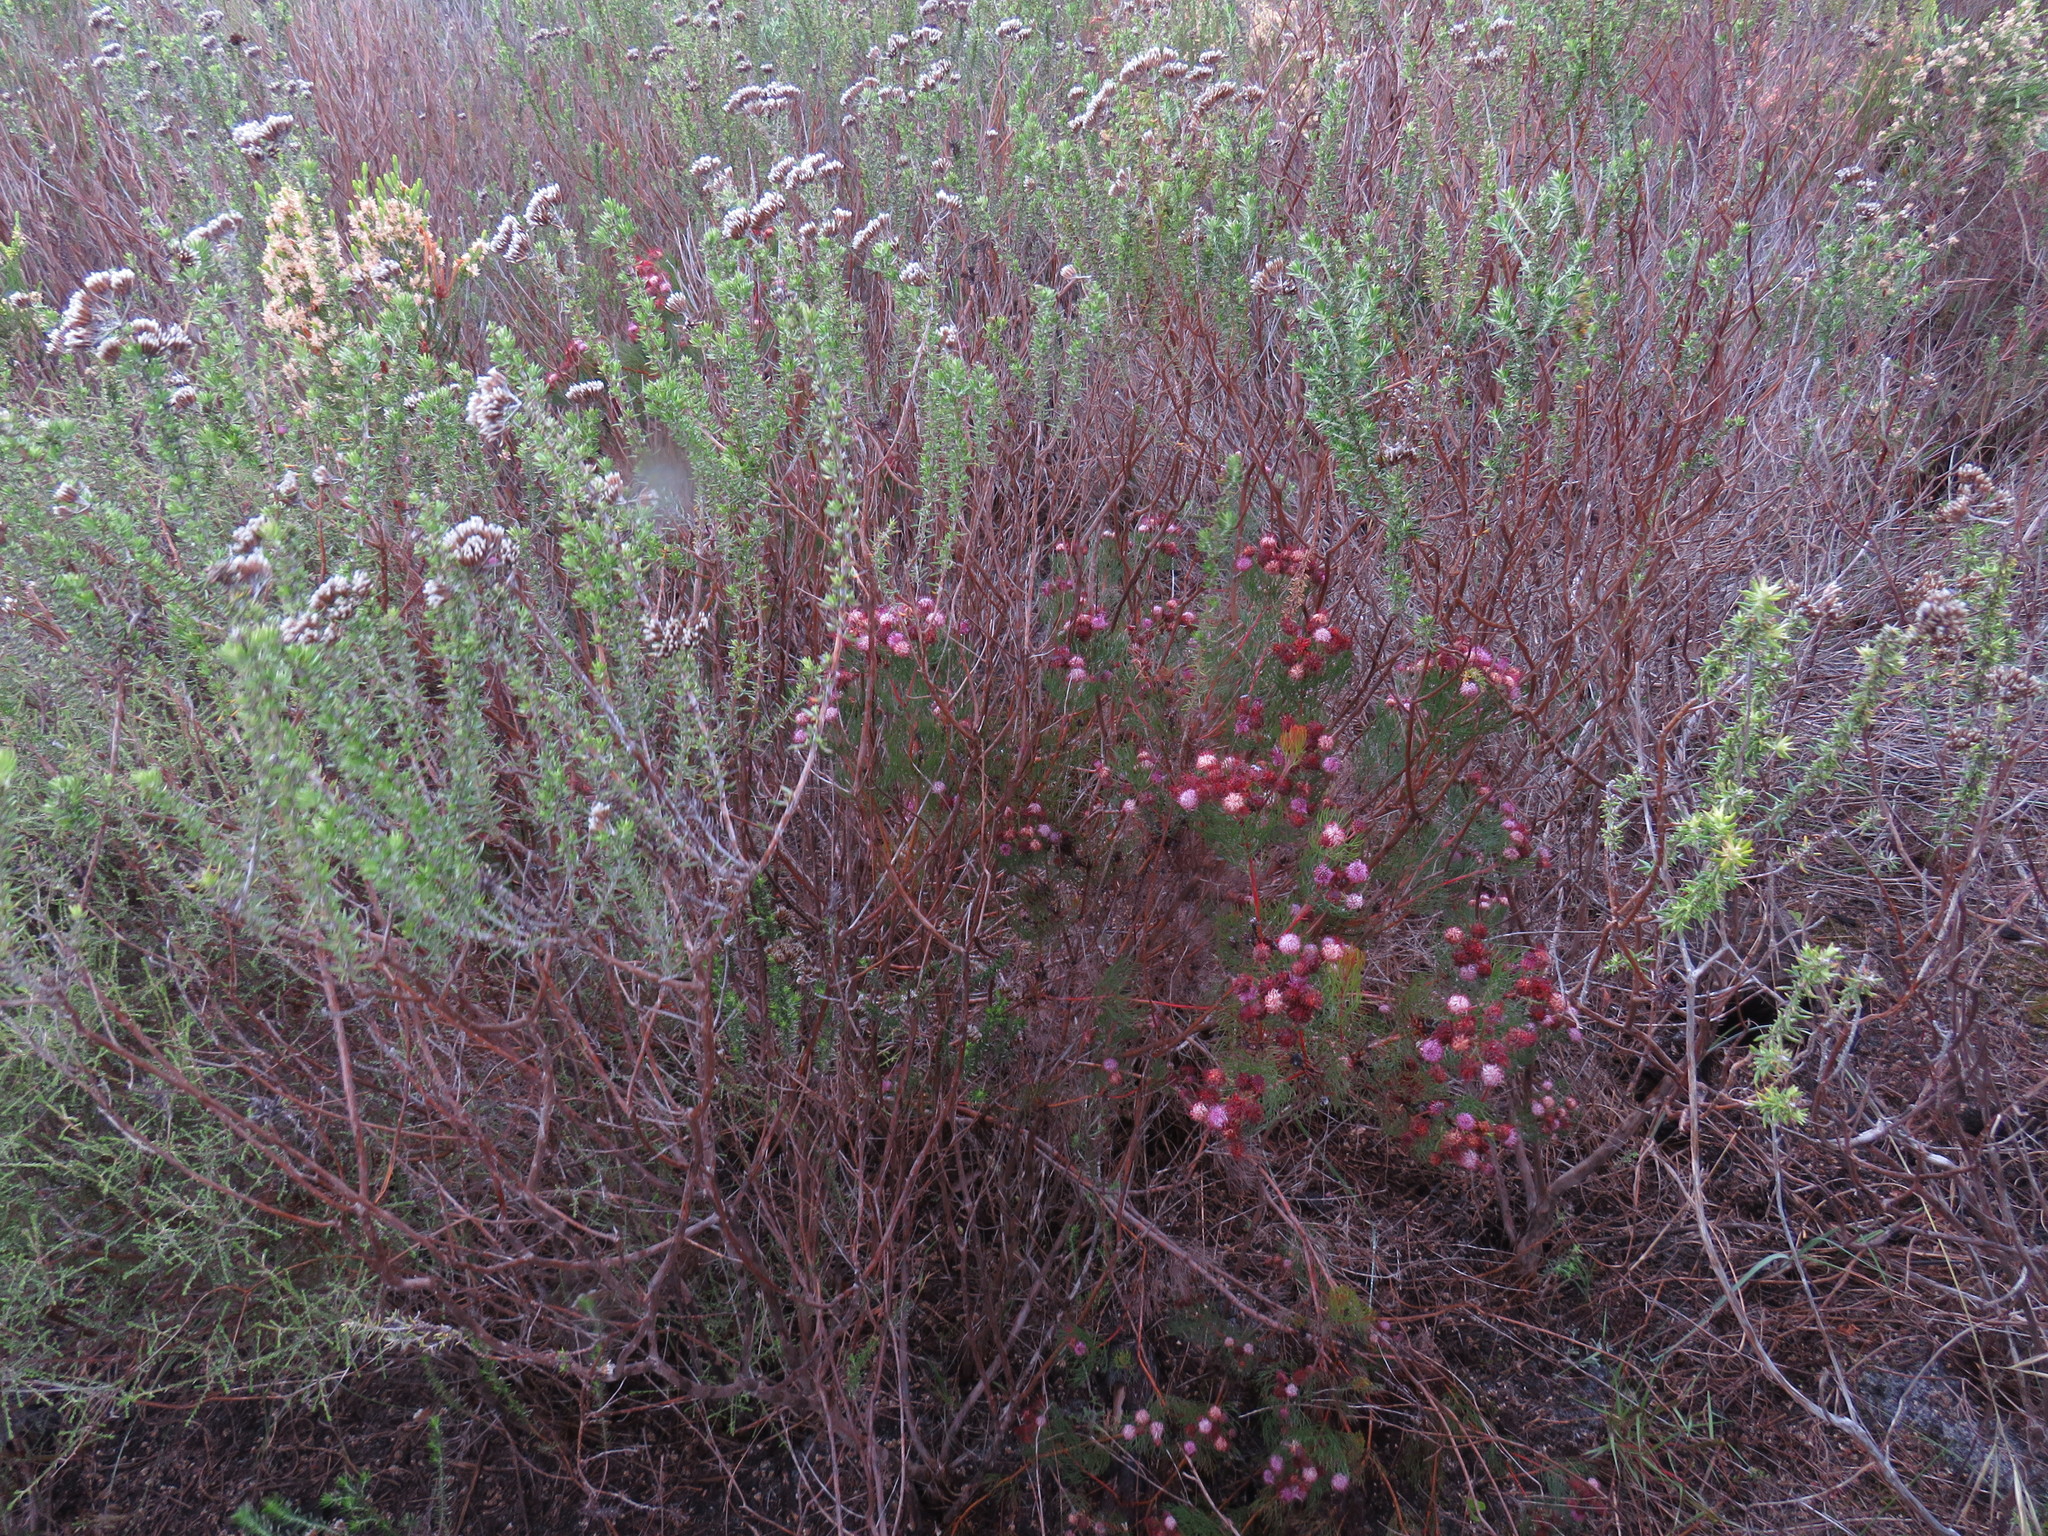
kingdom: Plantae
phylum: Tracheophyta
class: Magnoliopsida
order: Proteales
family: Proteaceae
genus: Serruria
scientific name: Serruria fasciflora
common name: Common pin spiderhead
